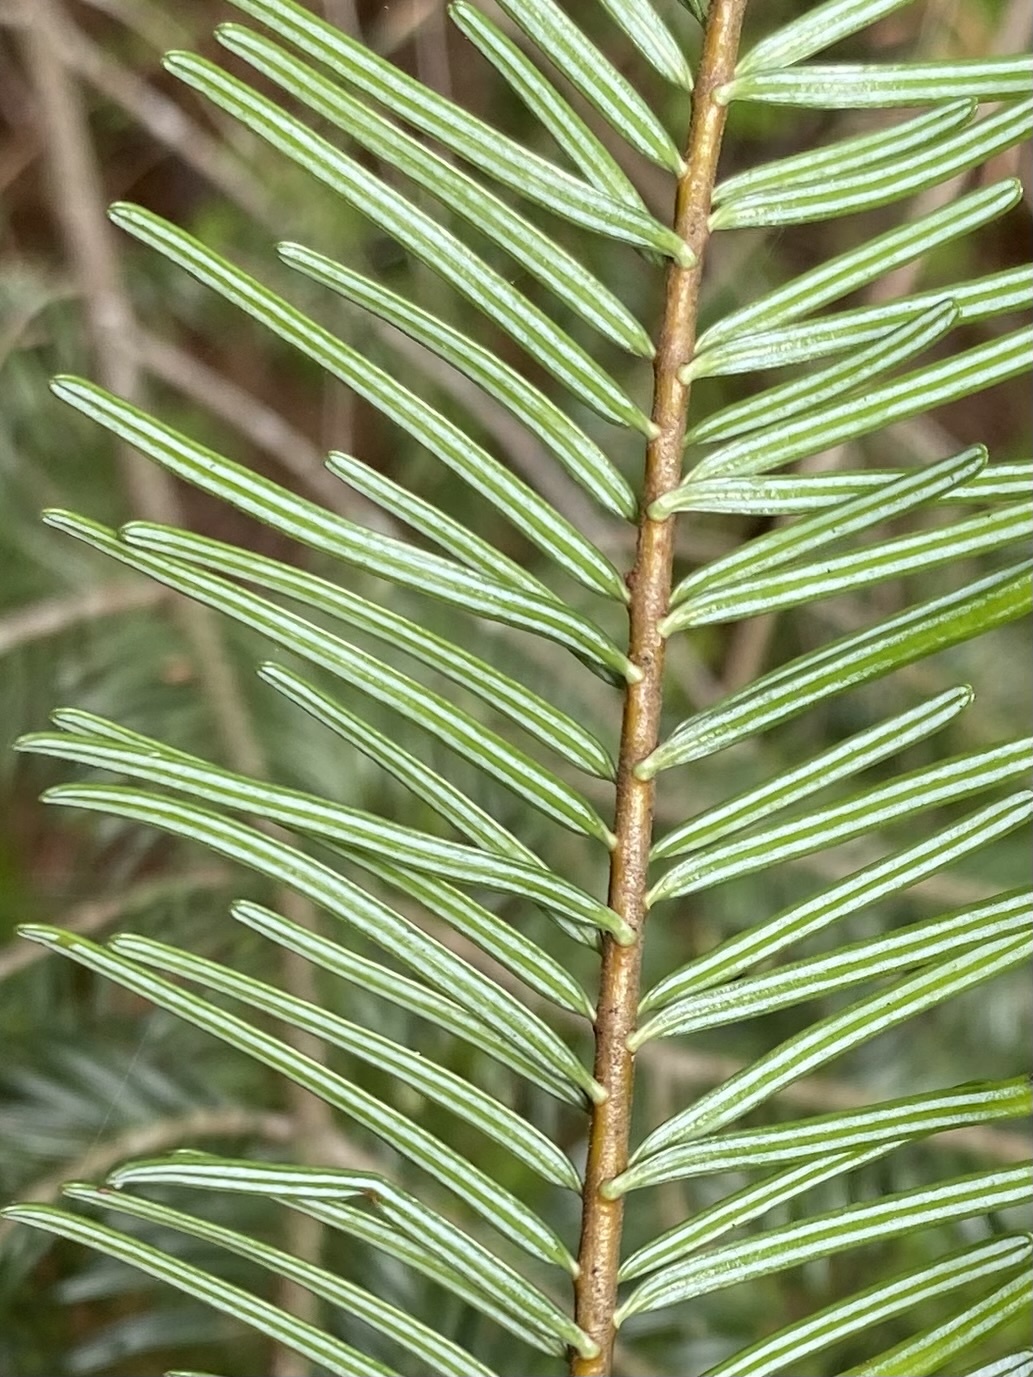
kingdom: Plantae
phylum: Tracheophyta
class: Pinopsida
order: Pinales
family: Pinaceae
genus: Abies
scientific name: Abies grandis
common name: Giant fir
